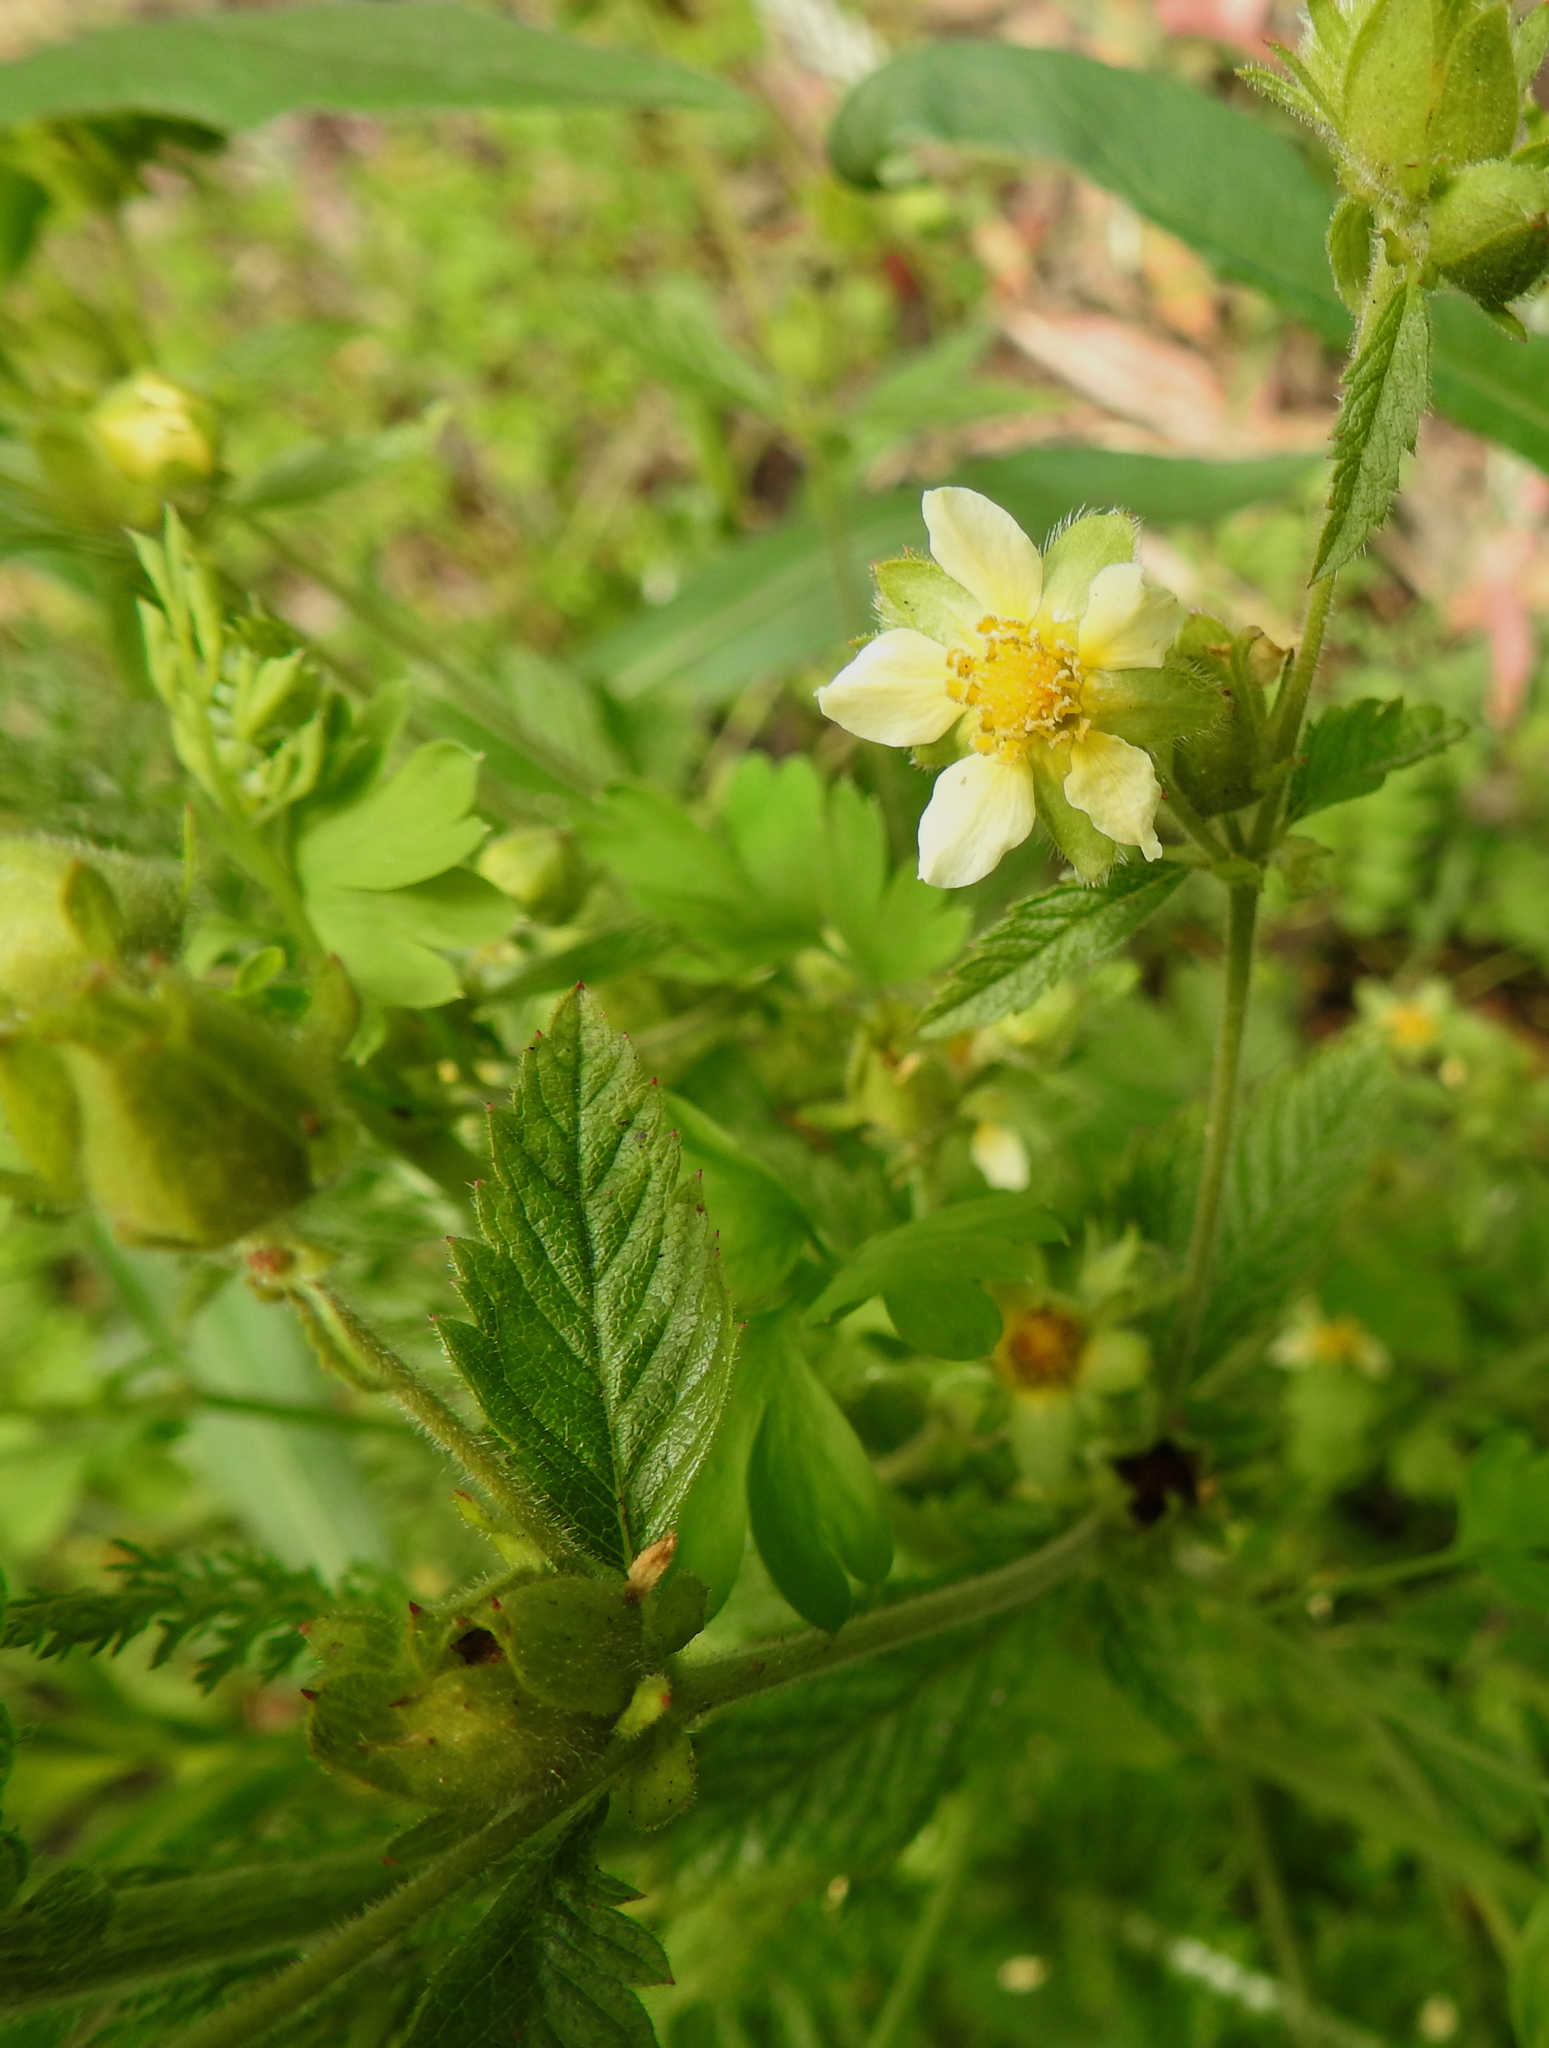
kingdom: Plantae
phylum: Tracheophyta
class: Magnoliopsida
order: Rosales
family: Rosaceae
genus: Drymocallis
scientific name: Drymocallis glandulosa
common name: Sticky cinquefoil
